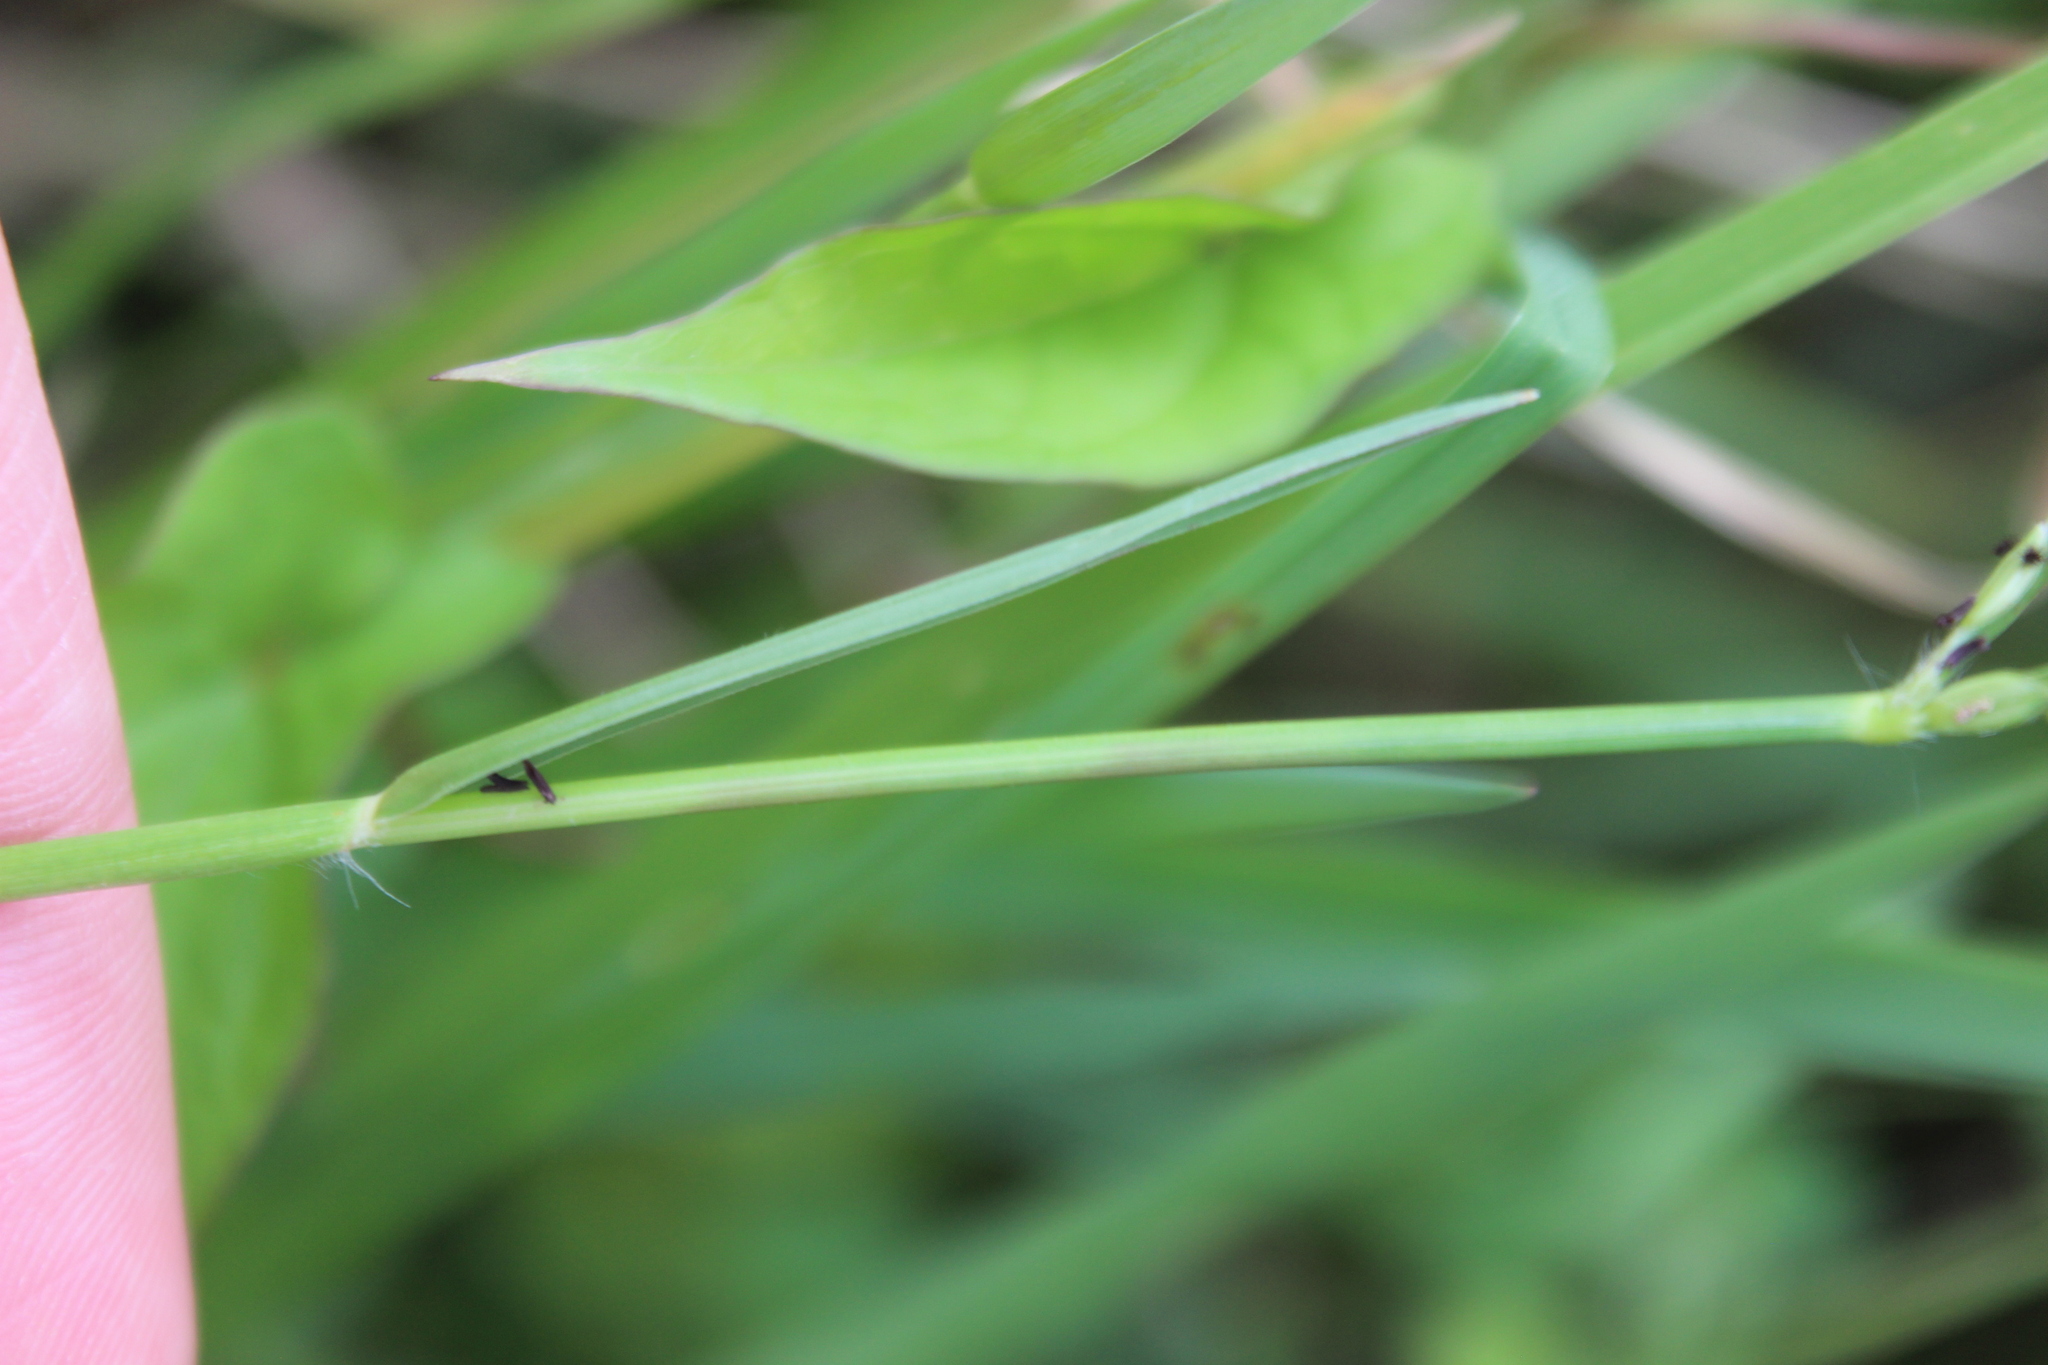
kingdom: Plantae
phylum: Tracheophyta
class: Liliopsida
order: Poales
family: Poaceae
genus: Paspalum
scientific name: Paspalum vaginatum
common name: Seashore paspalum
